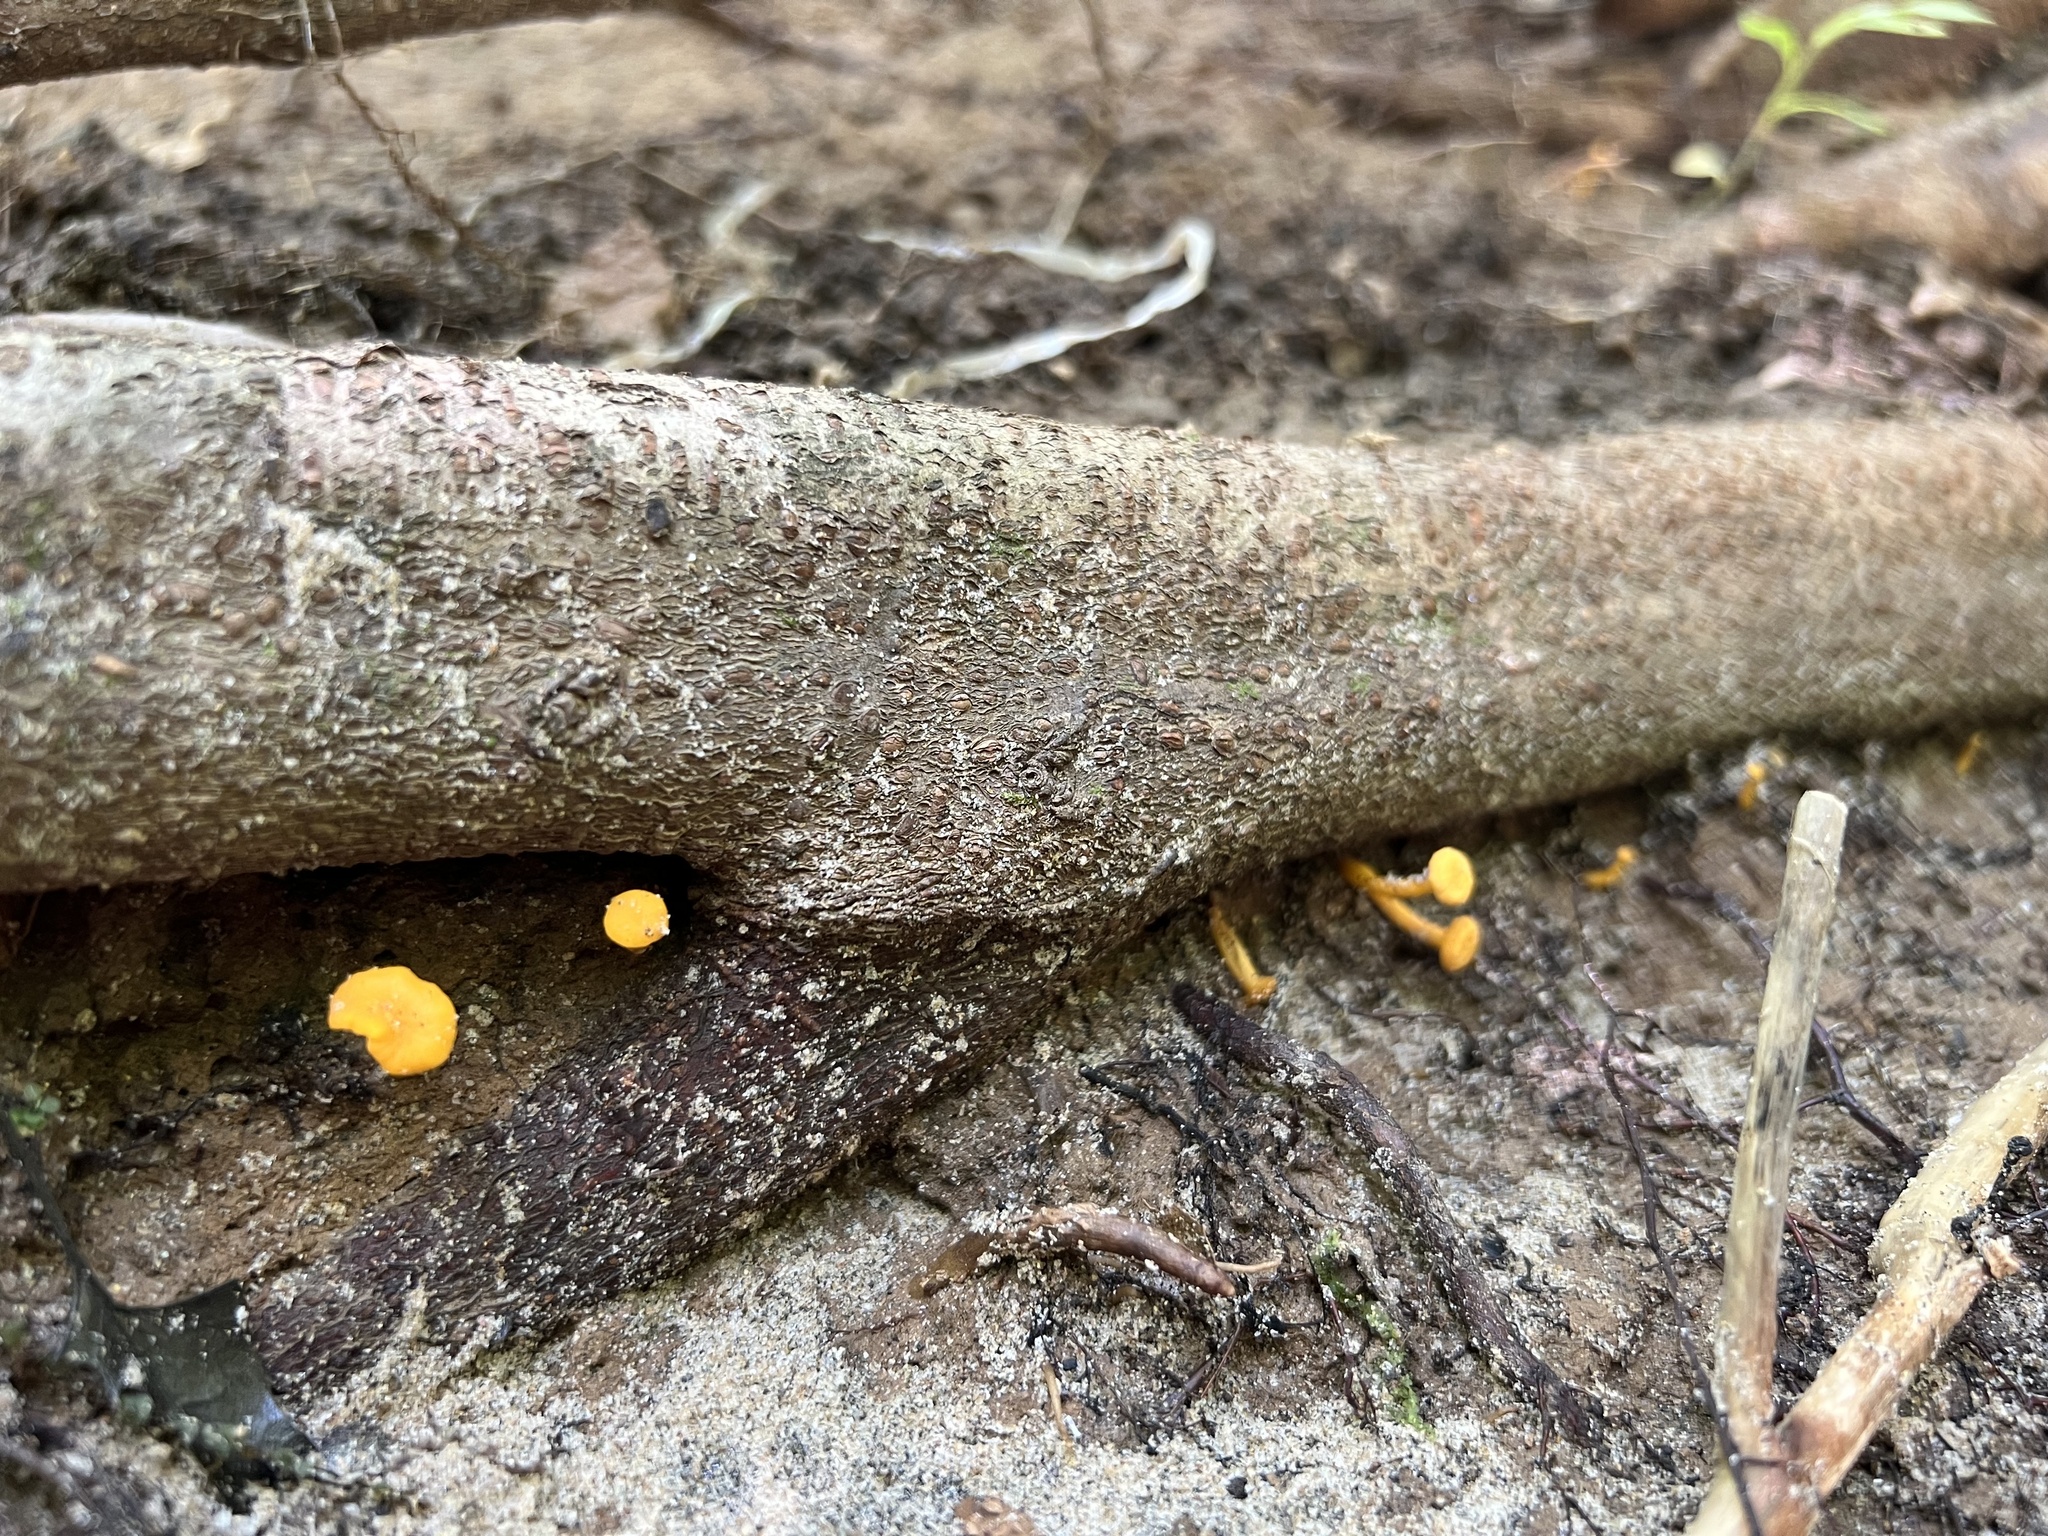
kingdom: Fungi
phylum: Basidiomycota
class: Agaricomycetes
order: Cantharellales
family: Hydnaceae
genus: Cantharellus
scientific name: Cantharellus minor
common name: Small chanterelle
